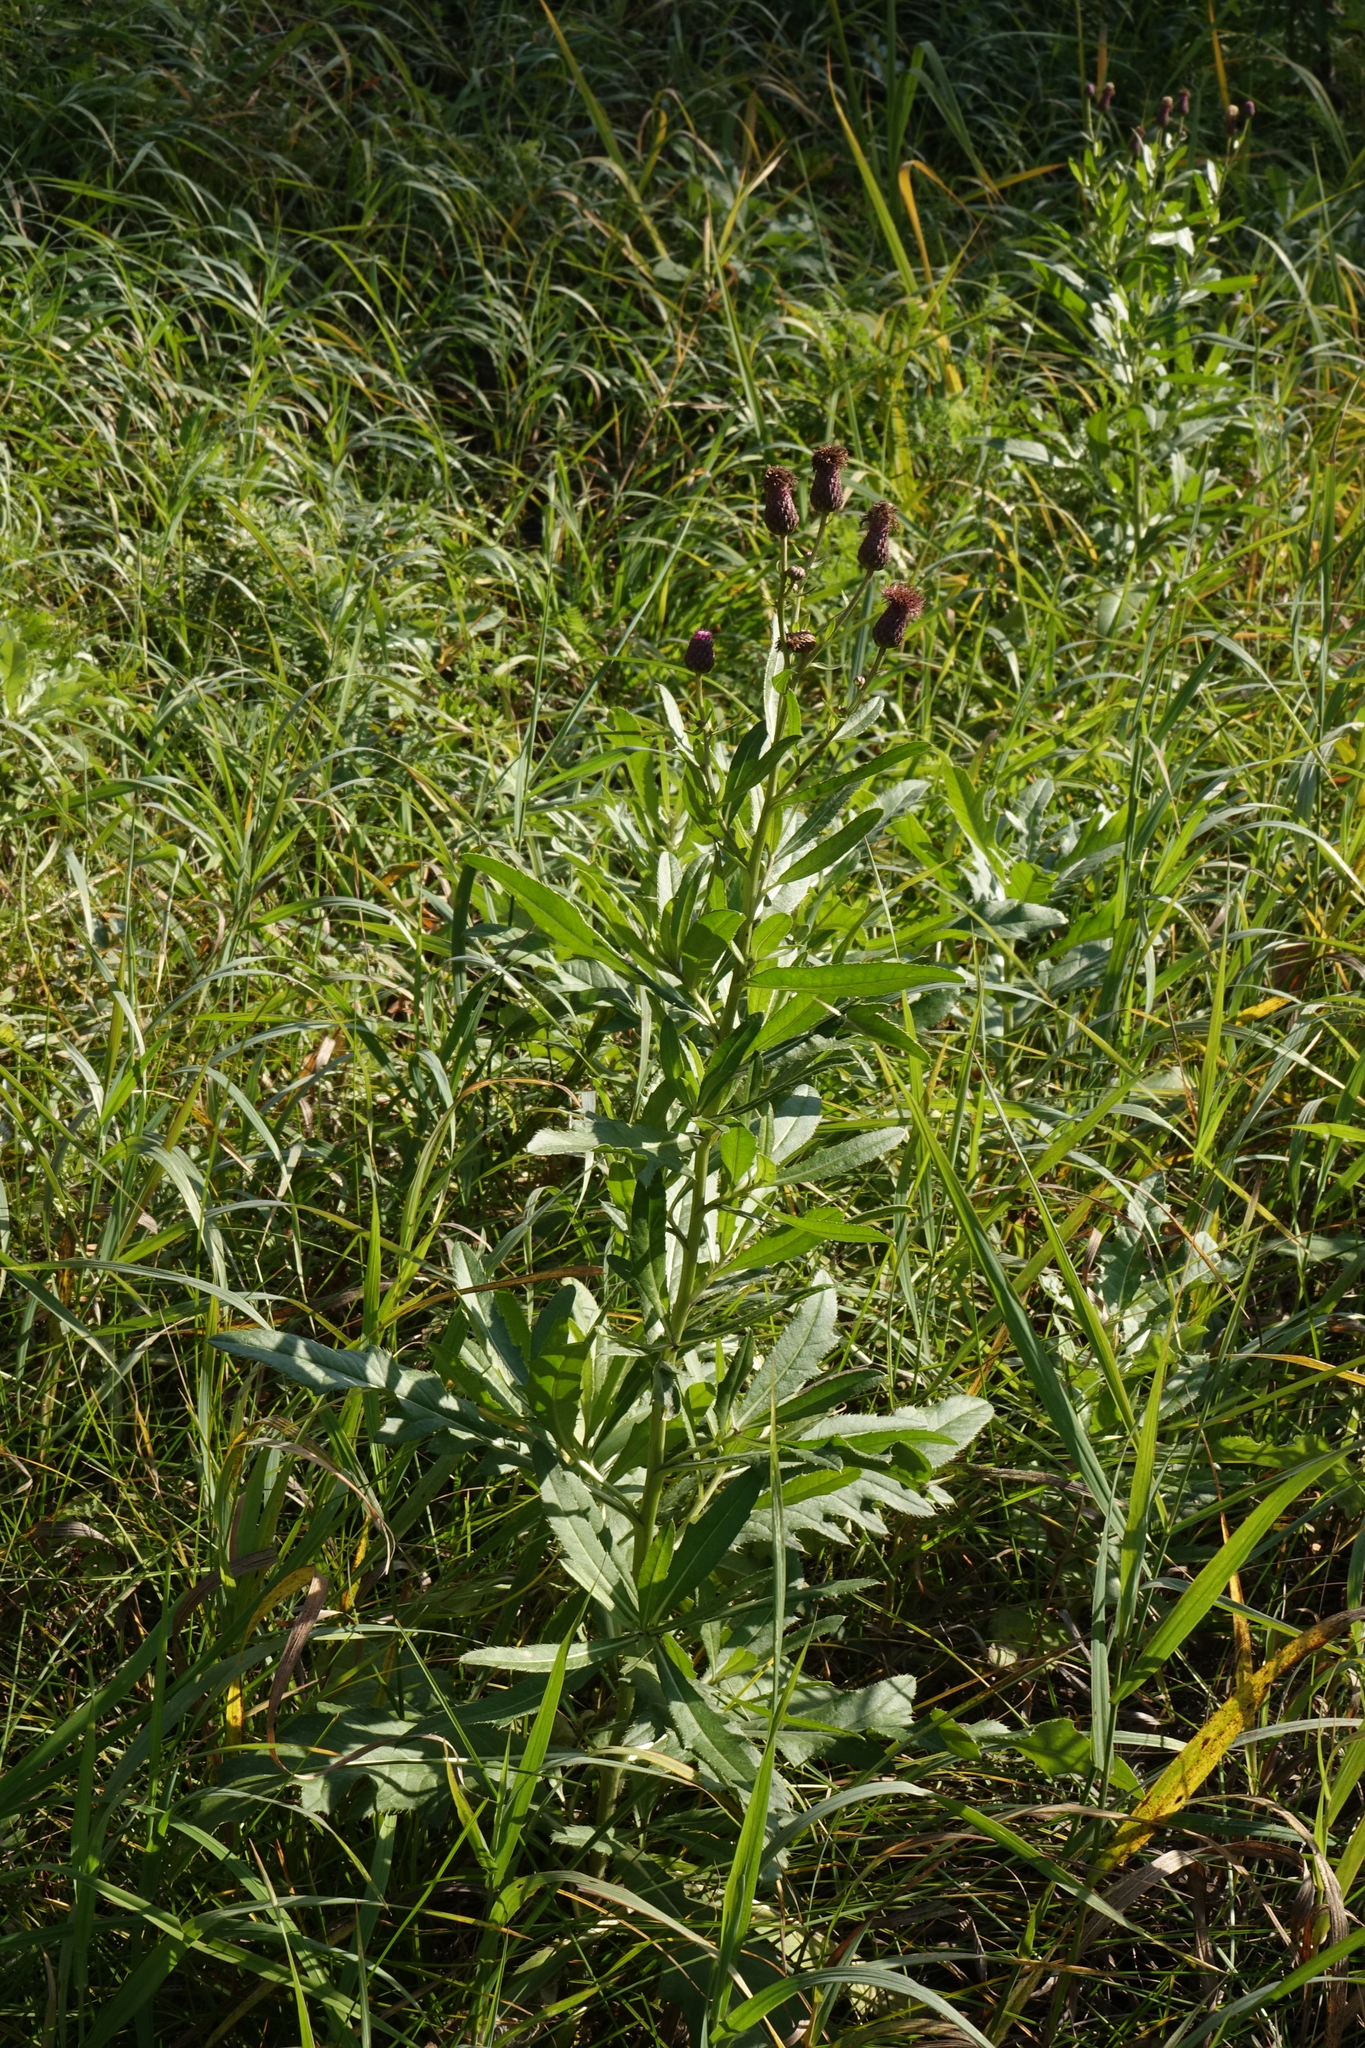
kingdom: Plantae
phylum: Tracheophyta
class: Magnoliopsida
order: Asterales
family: Asteraceae
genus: Cirsium
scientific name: Cirsium arvense
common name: Creeping thistle
